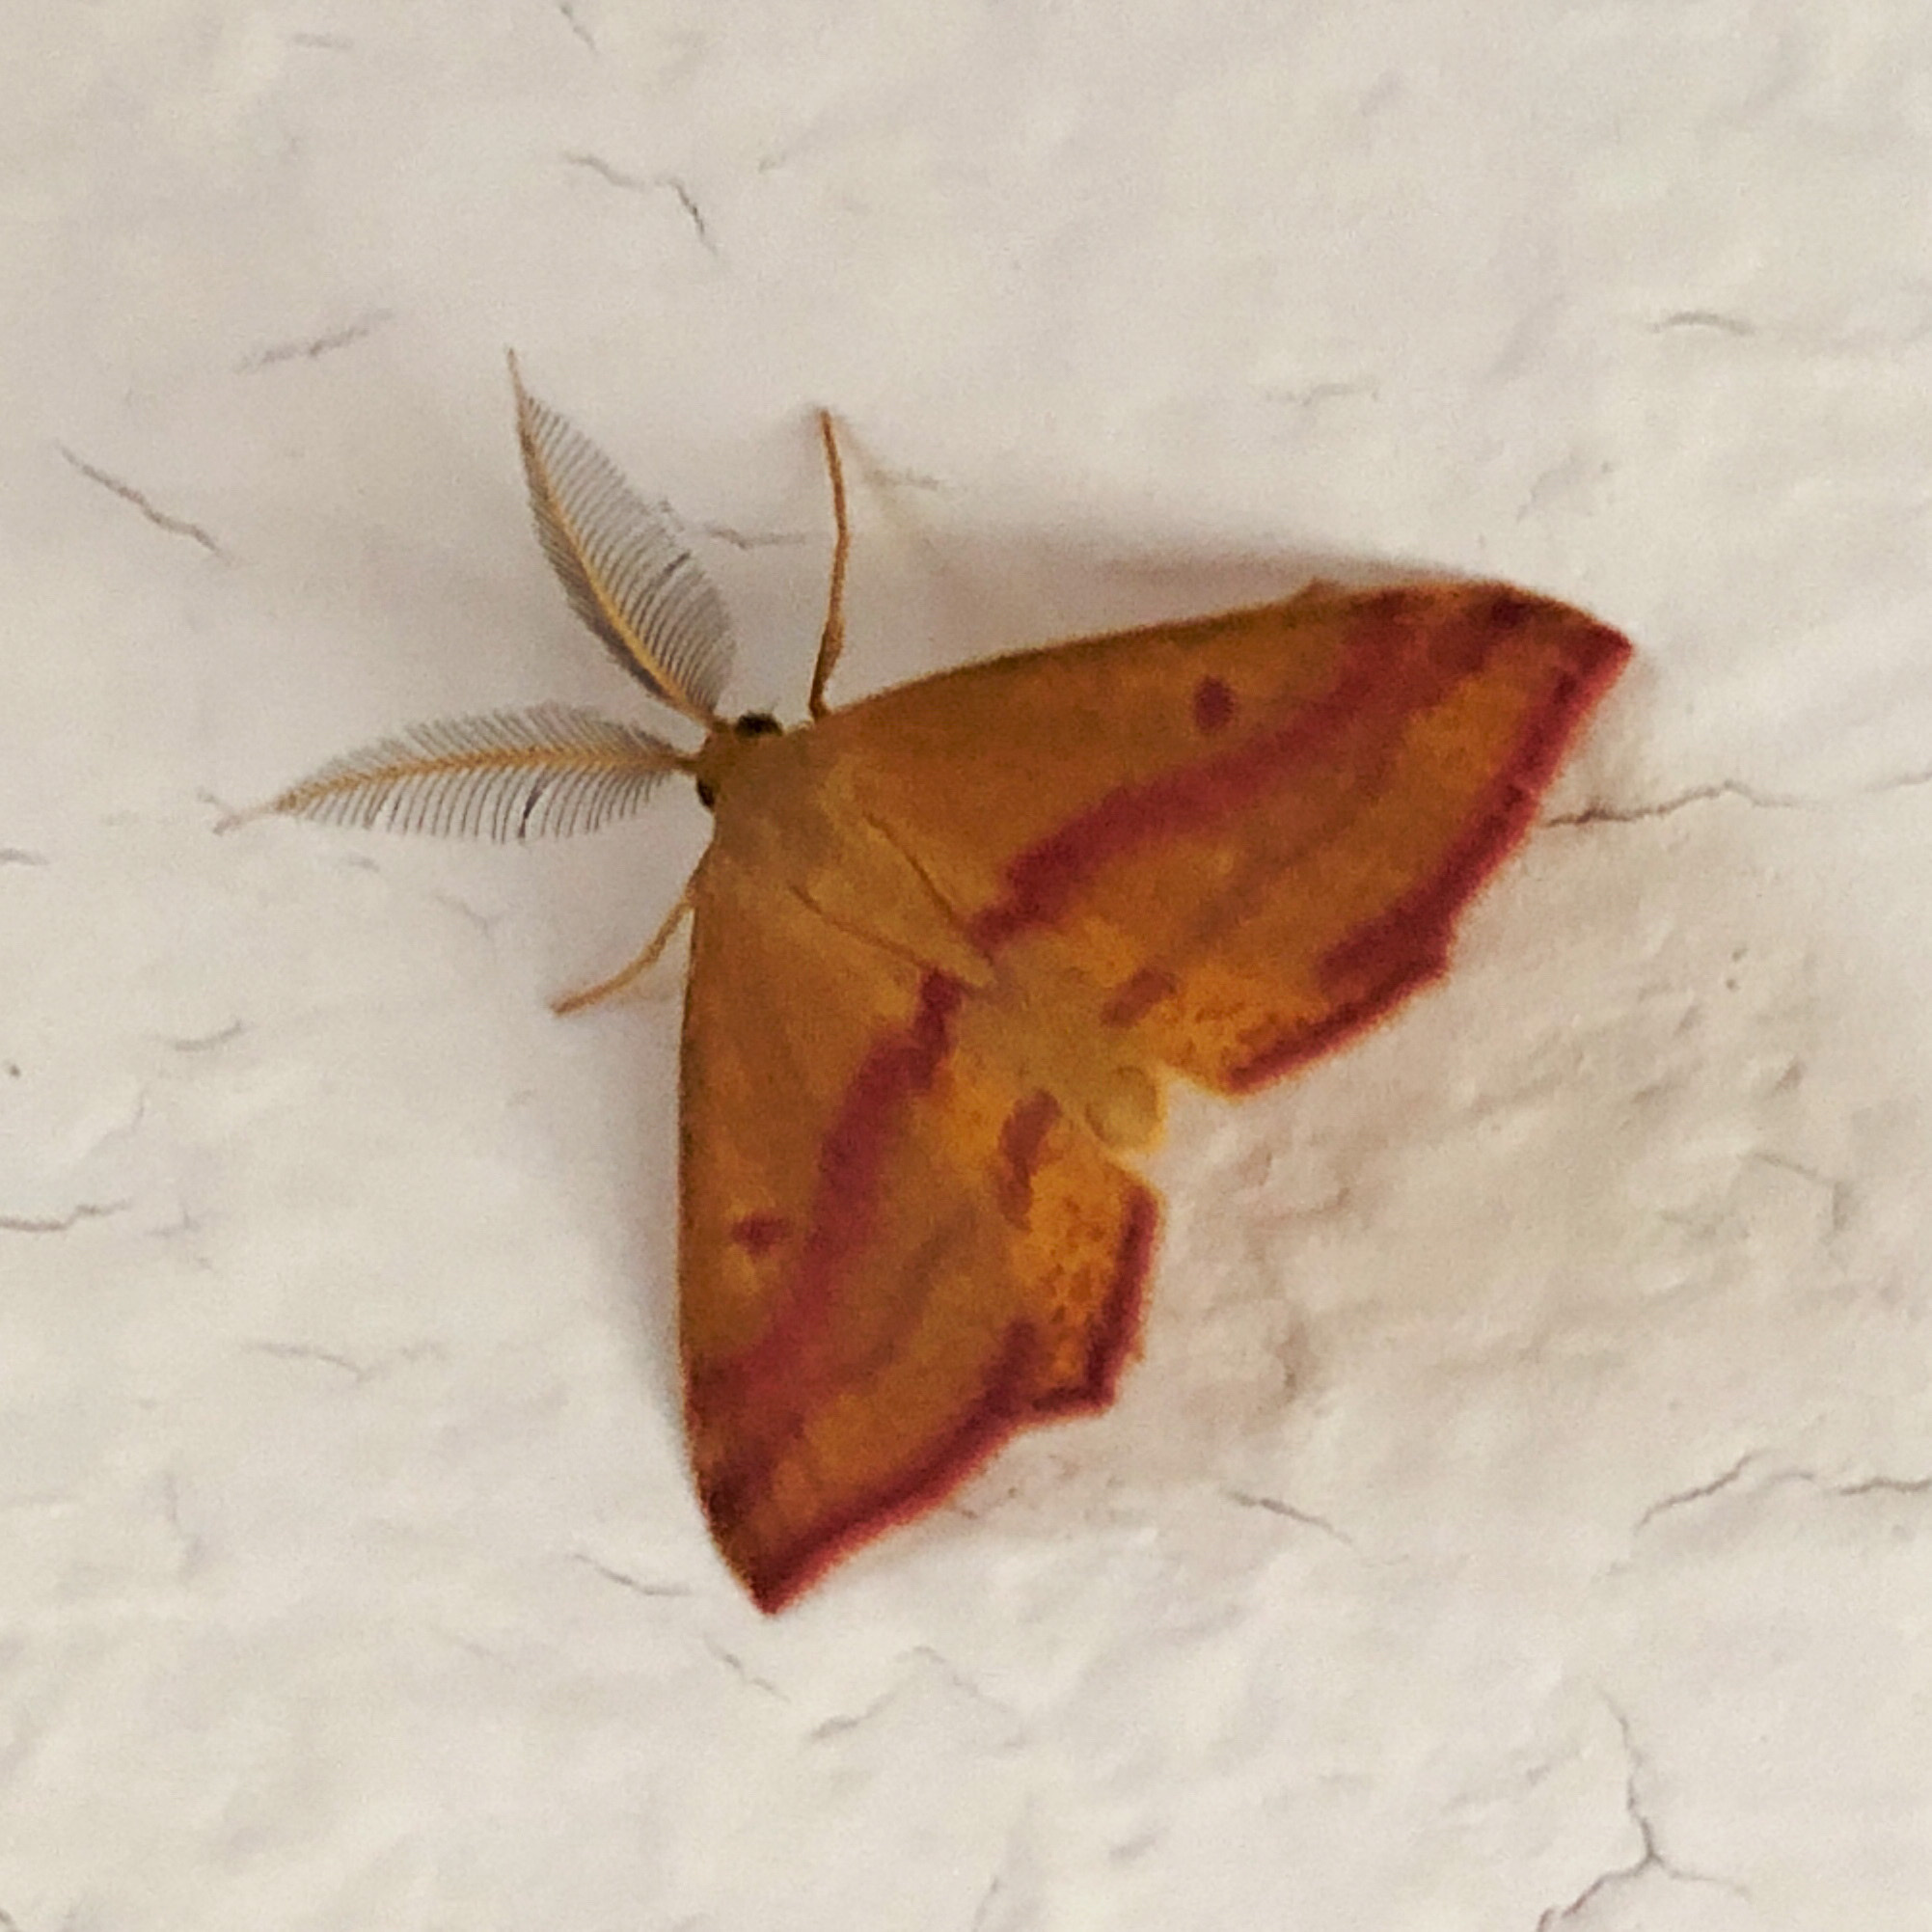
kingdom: Animalia
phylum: Arthropoda
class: Insecta
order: Lepidoptera
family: Geometridae
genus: Haematopis
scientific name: Haematopis grataria
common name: Chickweed geometer
